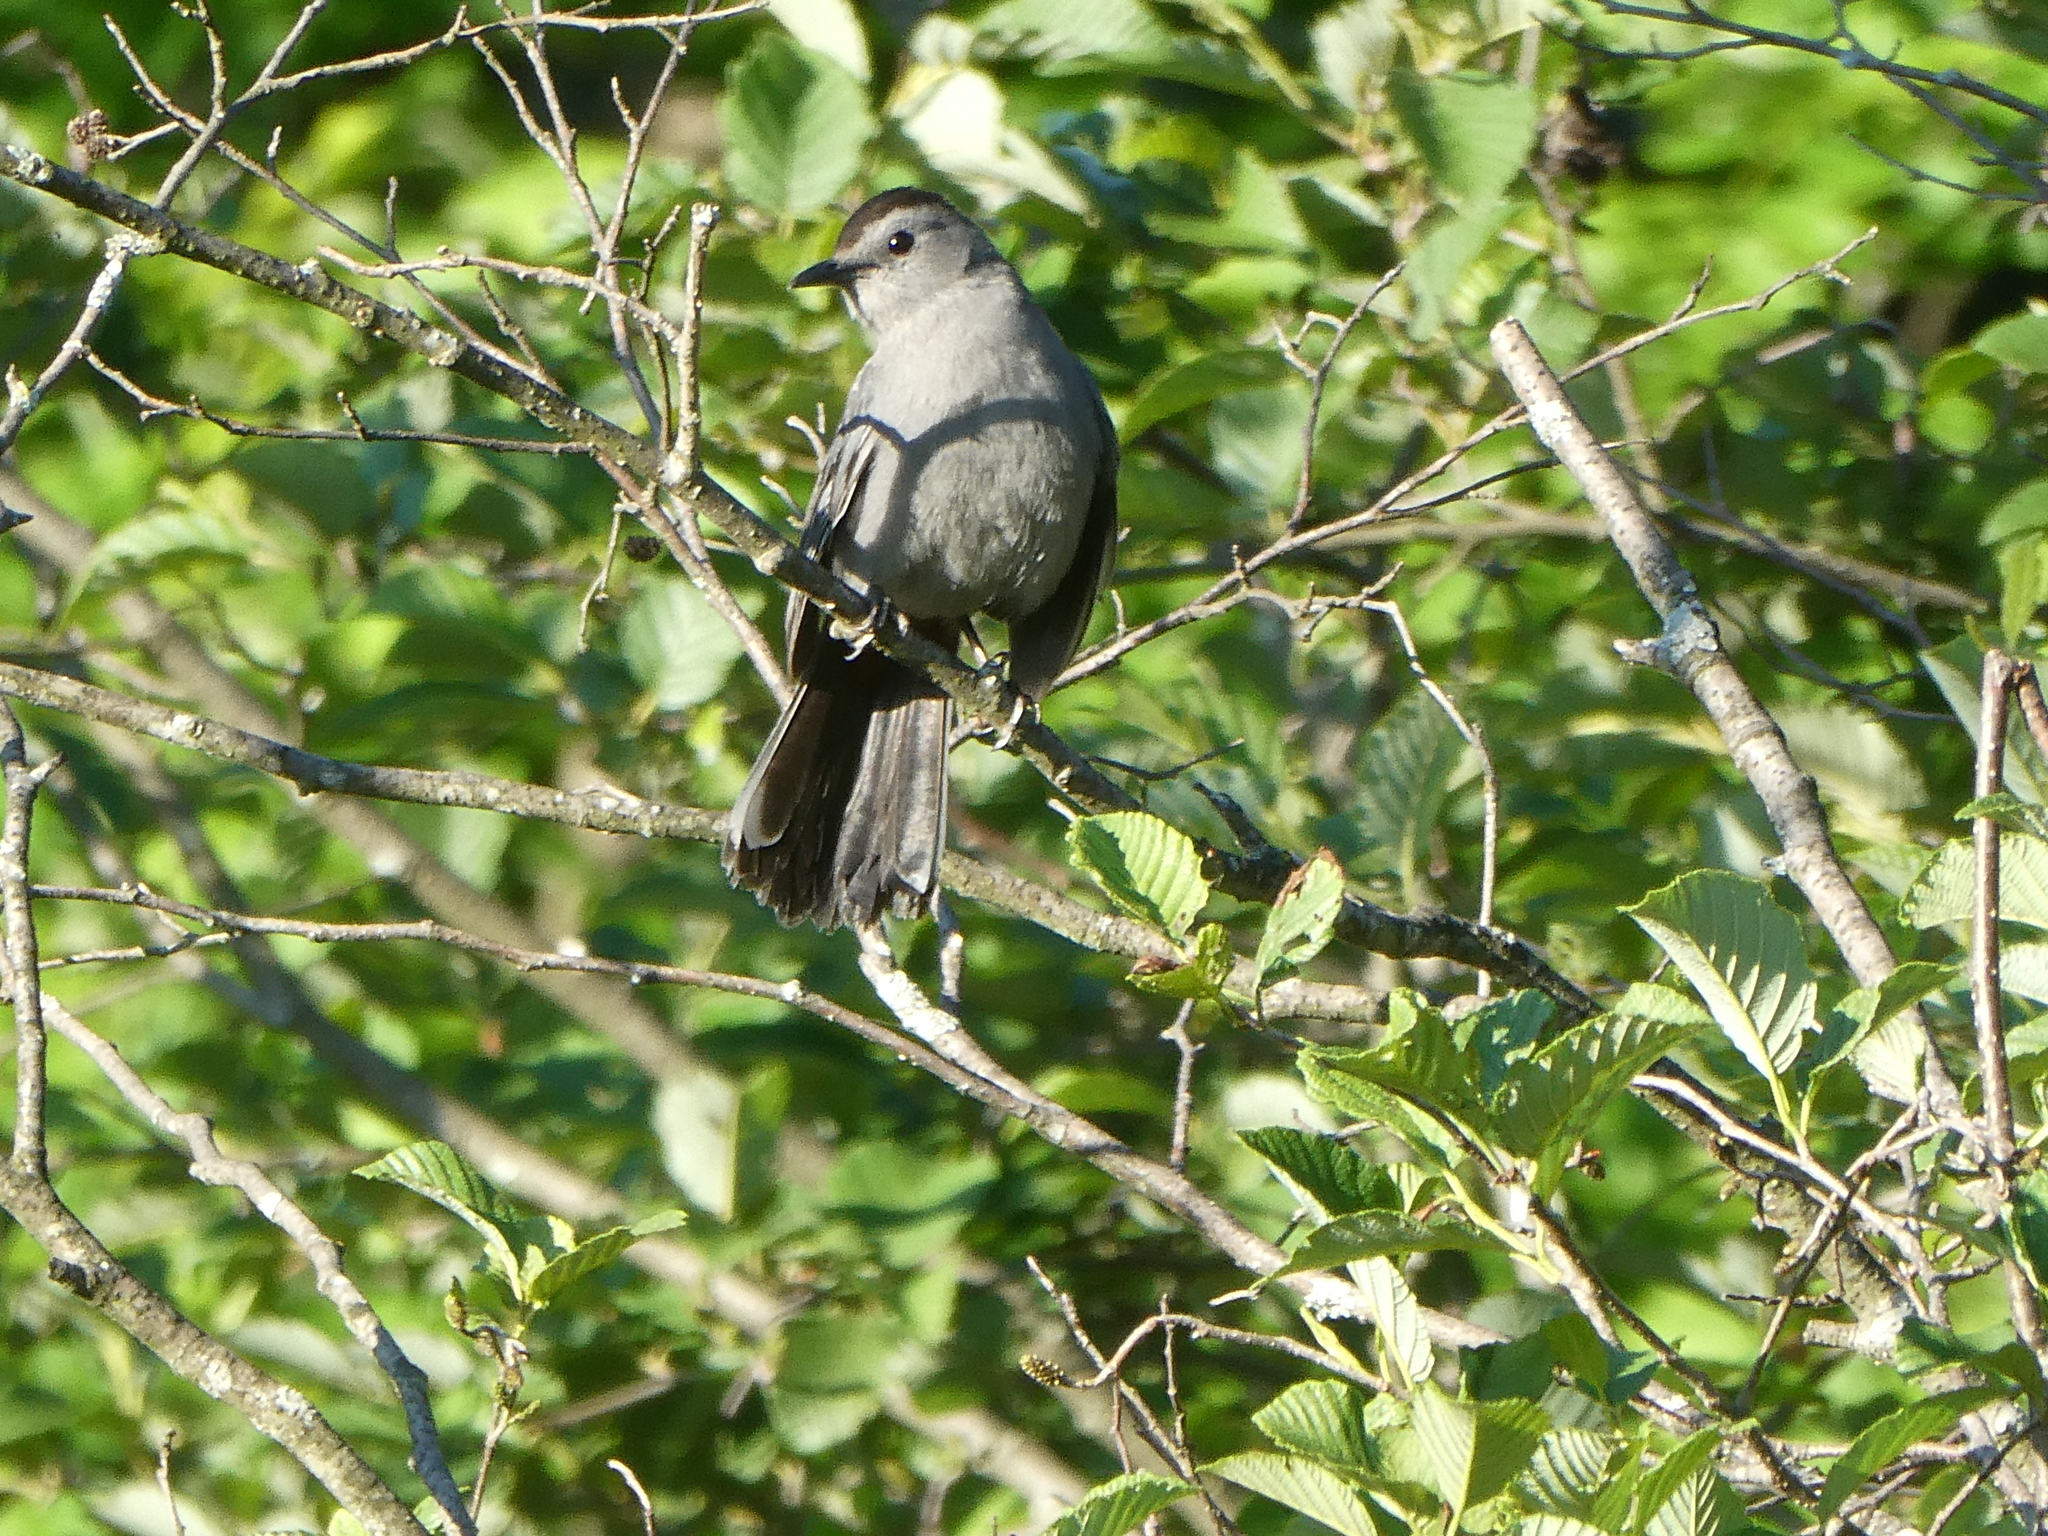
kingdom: Animalia
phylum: Chordata
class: Aves
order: Passeriformes
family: Mimidae
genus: Dumetella
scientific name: Dumetella carolinensis
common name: Gray catbird
